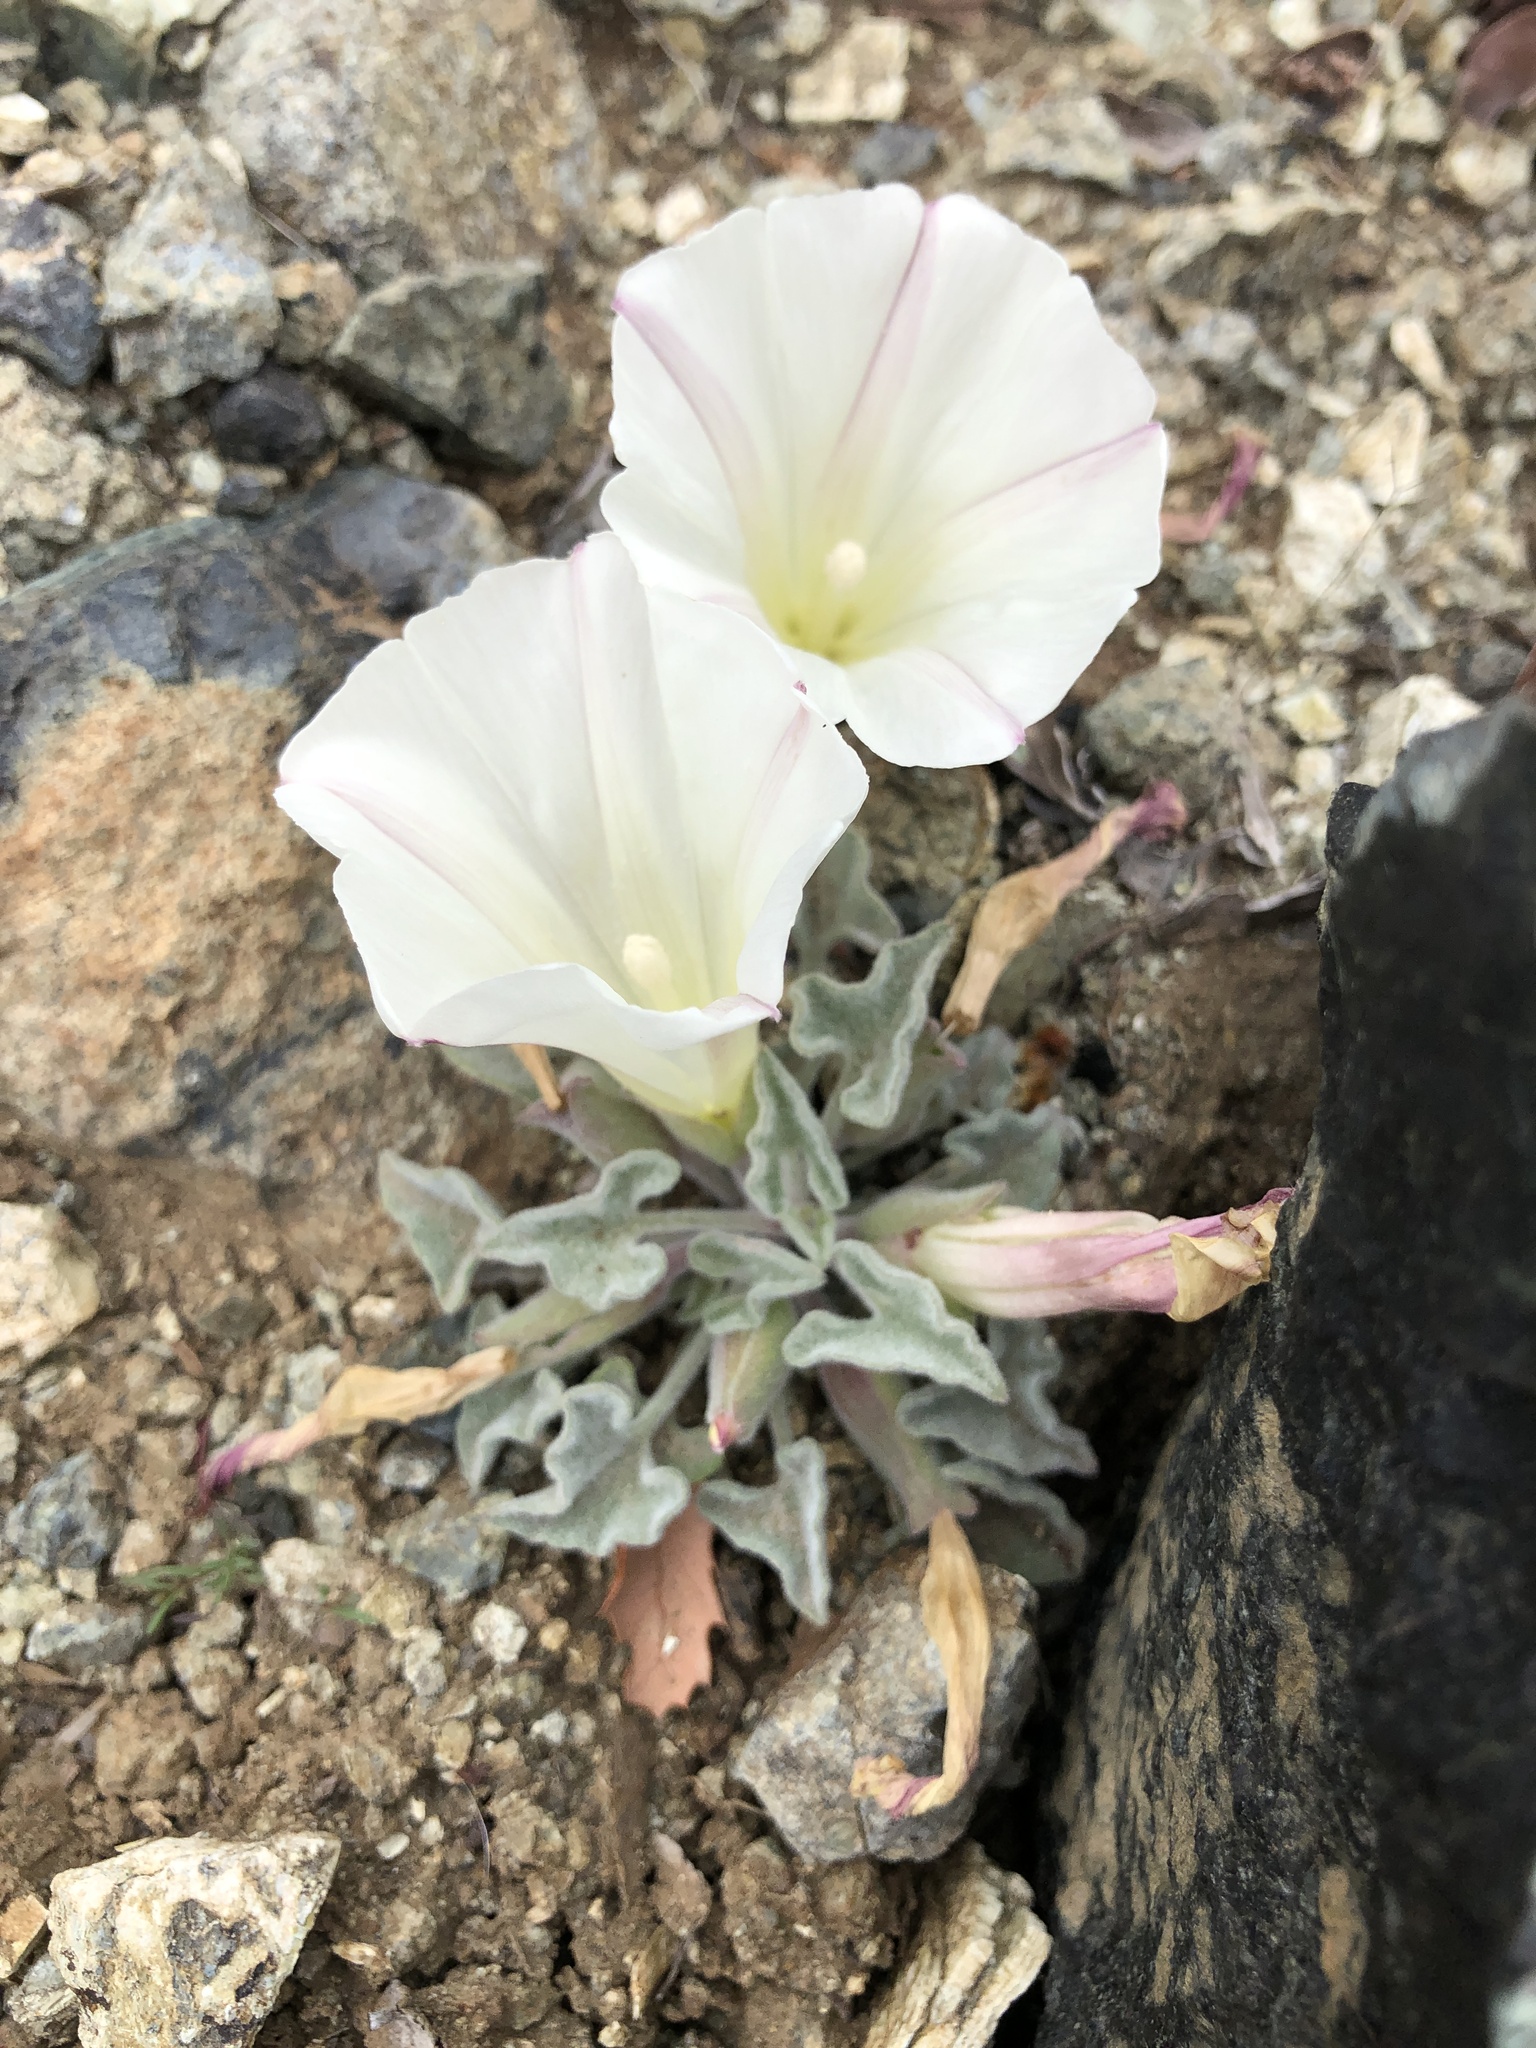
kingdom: Plantae
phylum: Tracheophyta
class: Magnoliopsida
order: Solanales
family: Convolvulaceae
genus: Calystegia
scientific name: Calystegia collina
